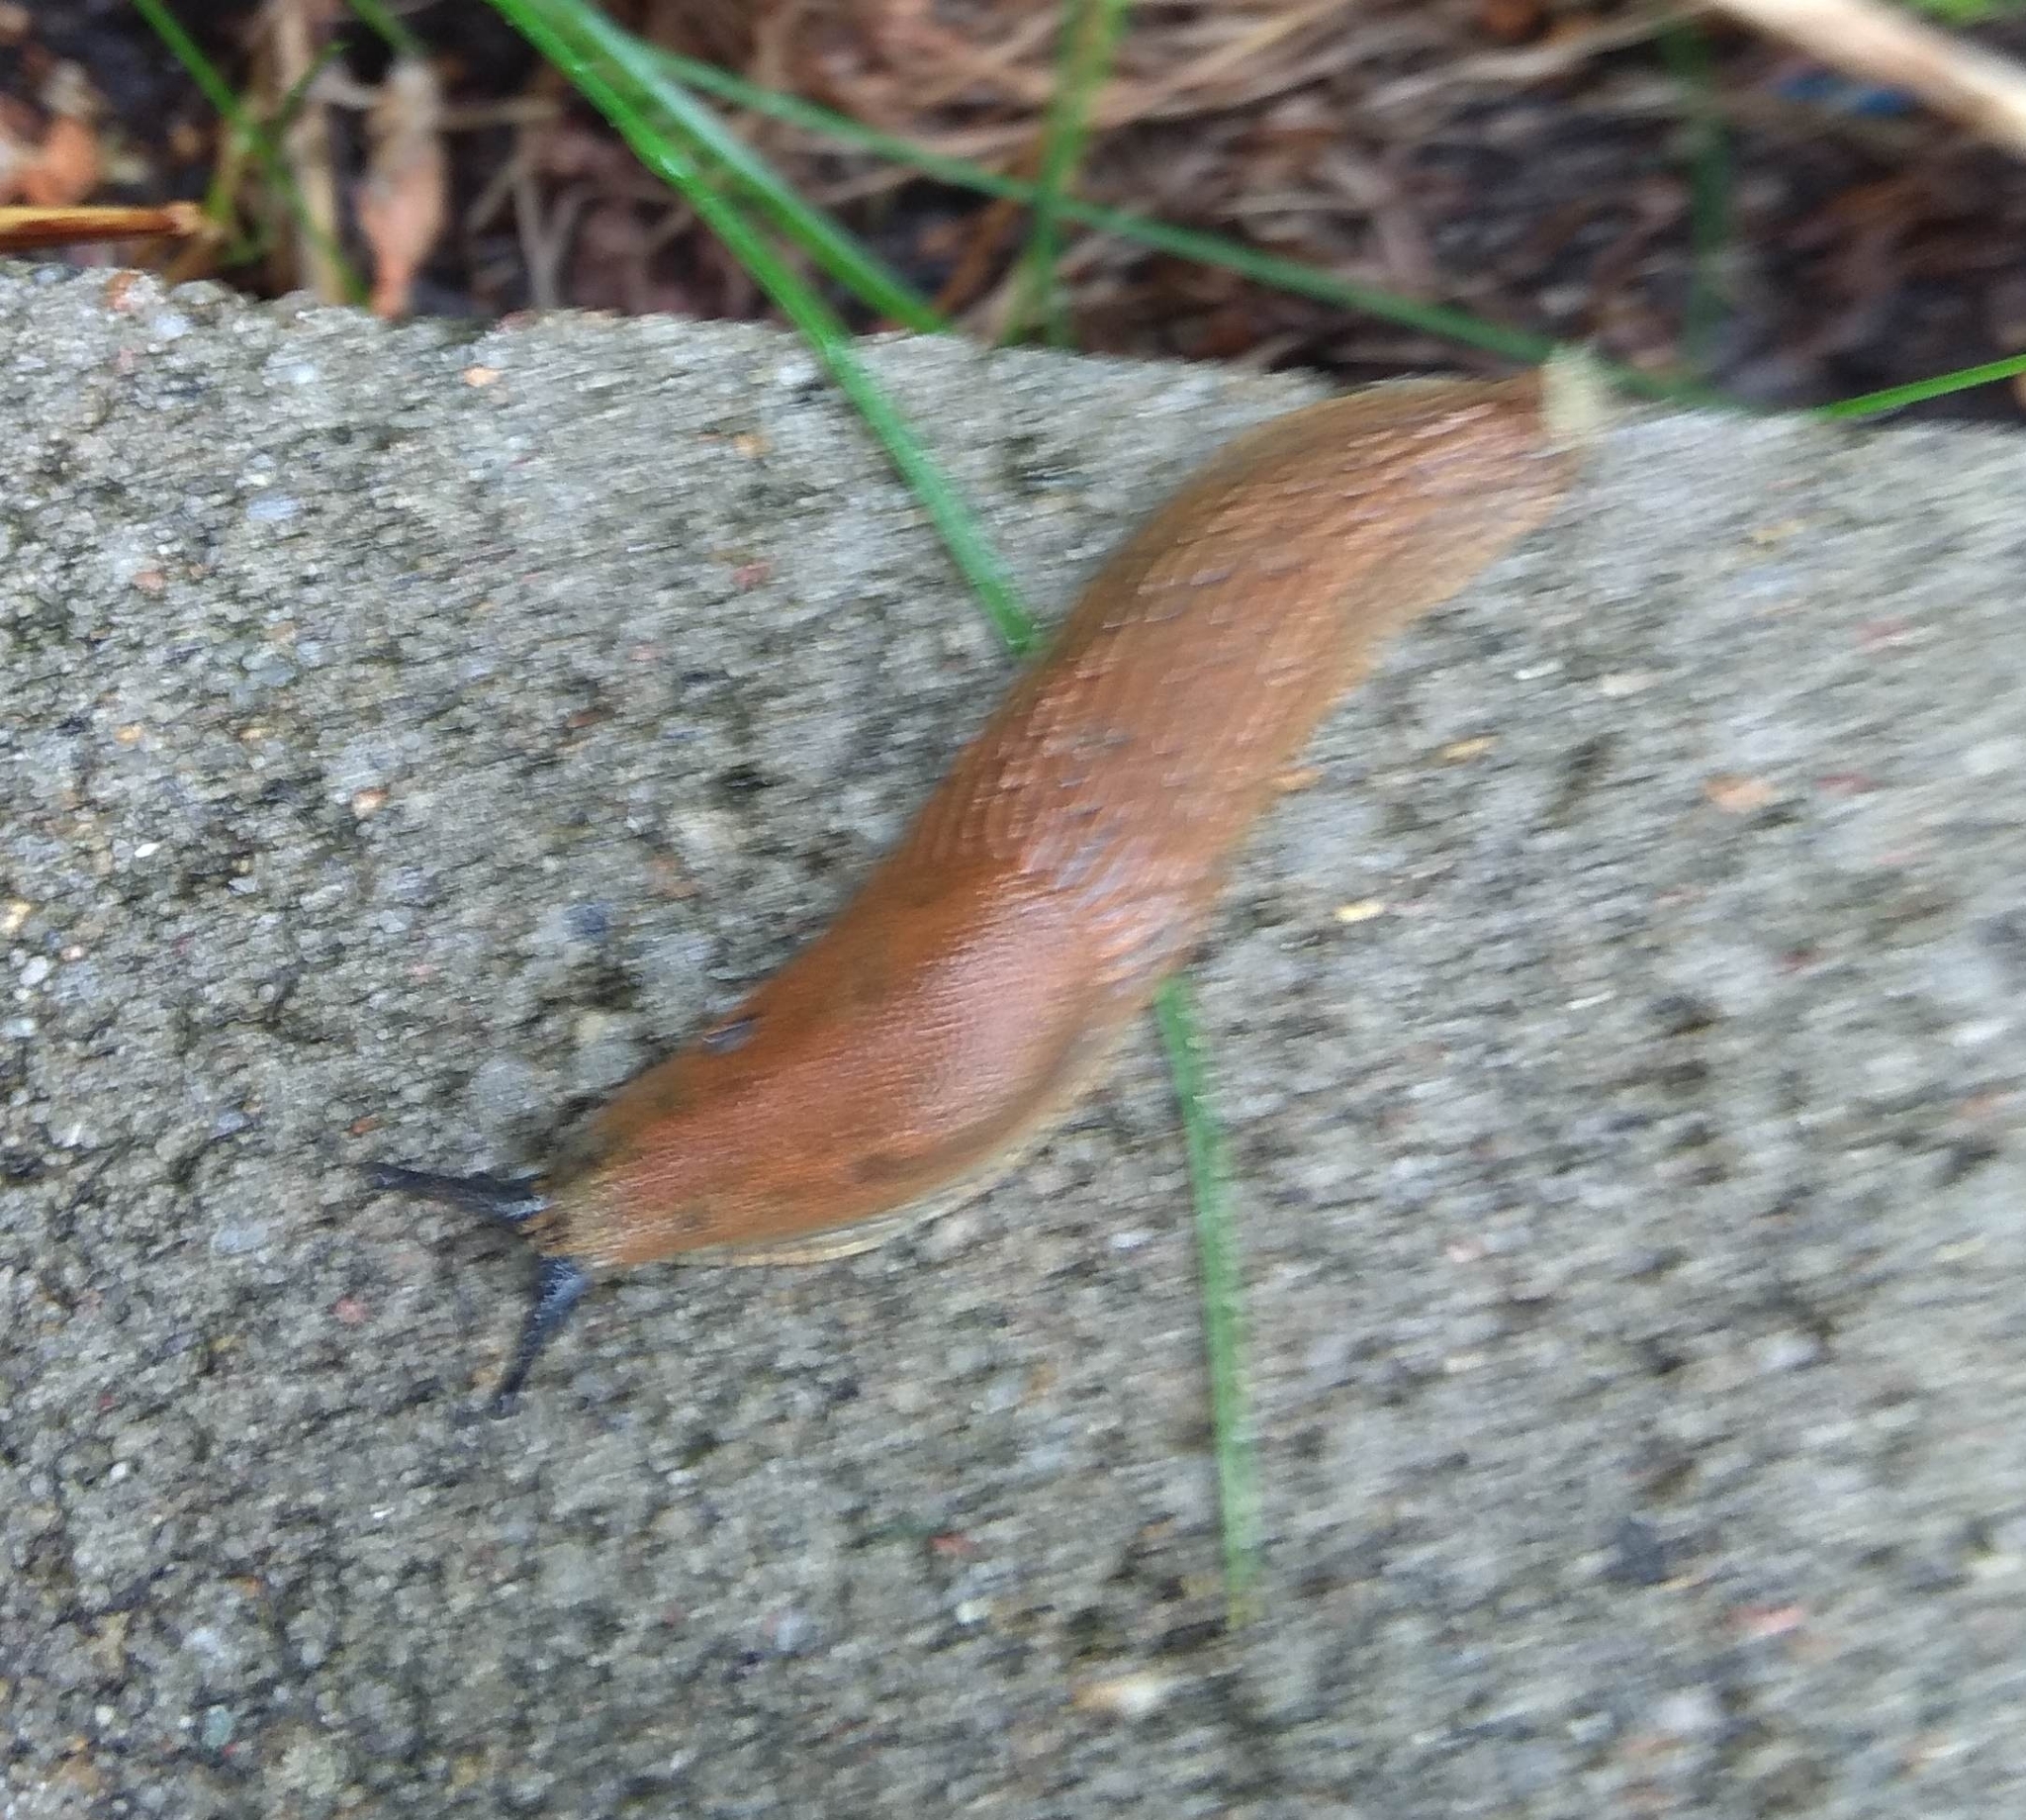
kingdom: Animalia
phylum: Mollusca
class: Gastropoda
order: Stylommatophora
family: Arionidae
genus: Arion
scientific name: Arion rufus
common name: Chocolate arion
